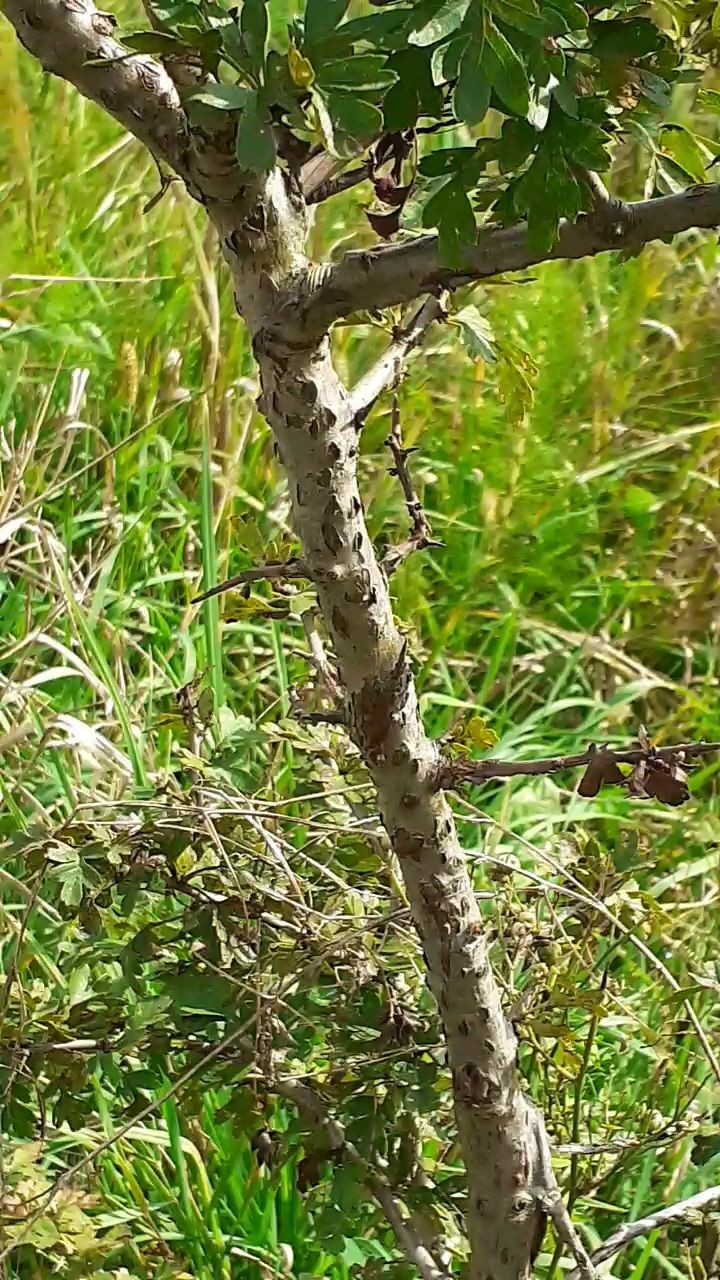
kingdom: Plantae
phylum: Tracheophyta
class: Magnoliopsida
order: Rosales
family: Rosaceae
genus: Crataegus
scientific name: Crataegus monogyna
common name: Hawthorn
